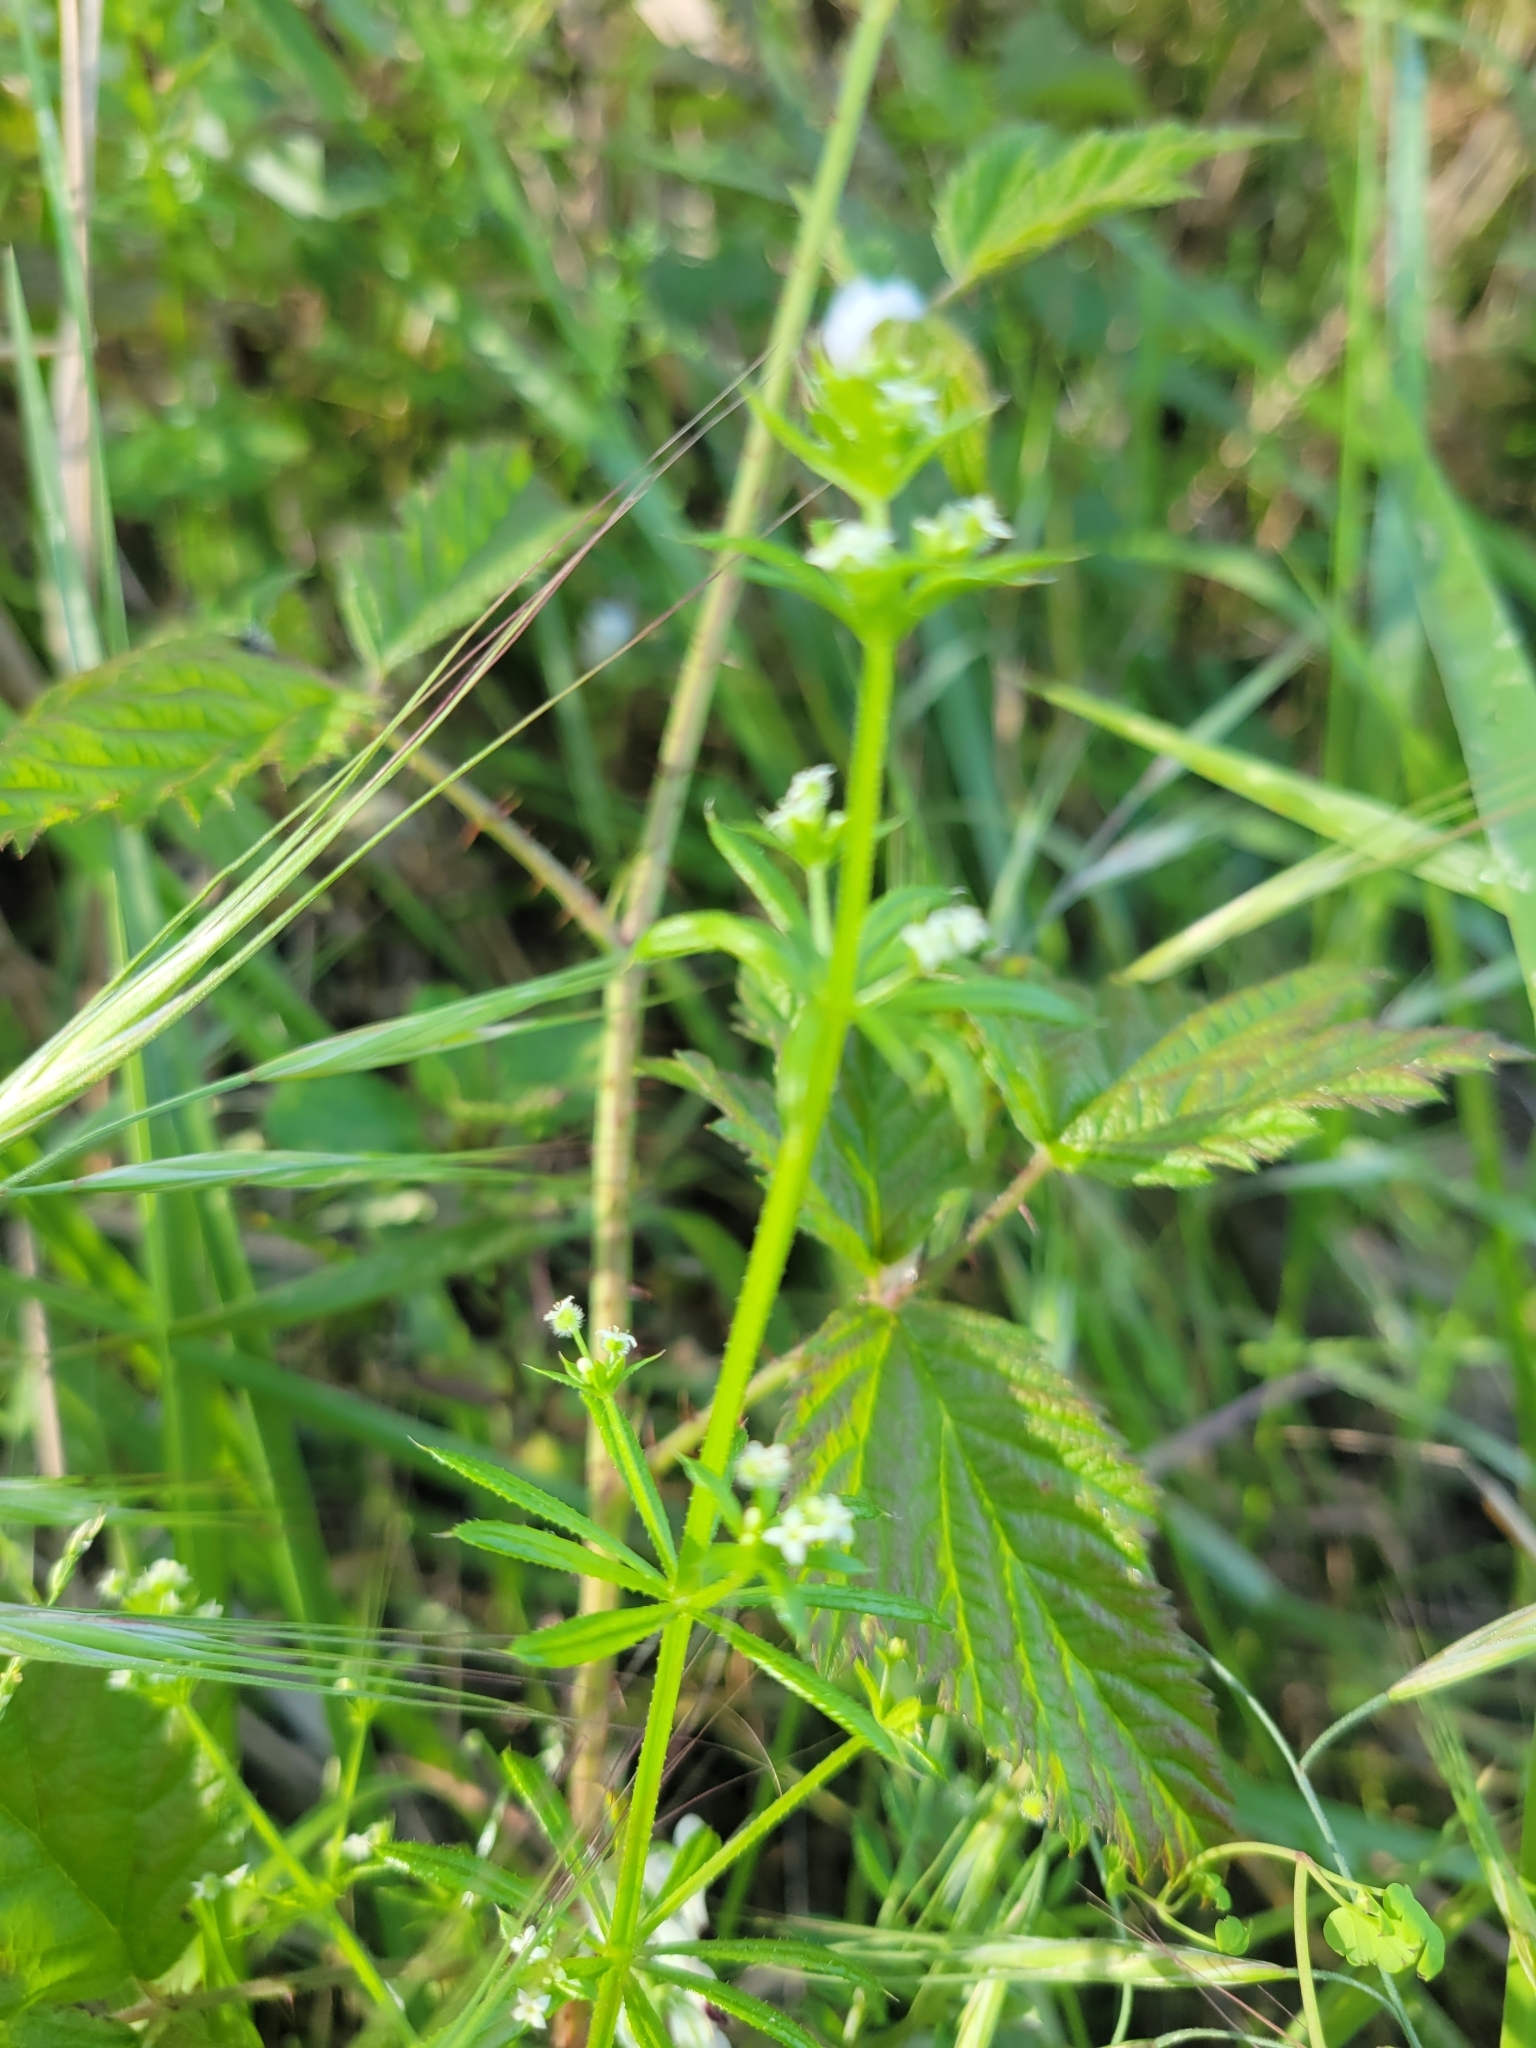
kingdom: Plantae
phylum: Tracheophyta
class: Magnoliopsida
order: Gentianales
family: Rubiaceae
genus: Galium
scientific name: Galium aparine
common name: Cleavers
